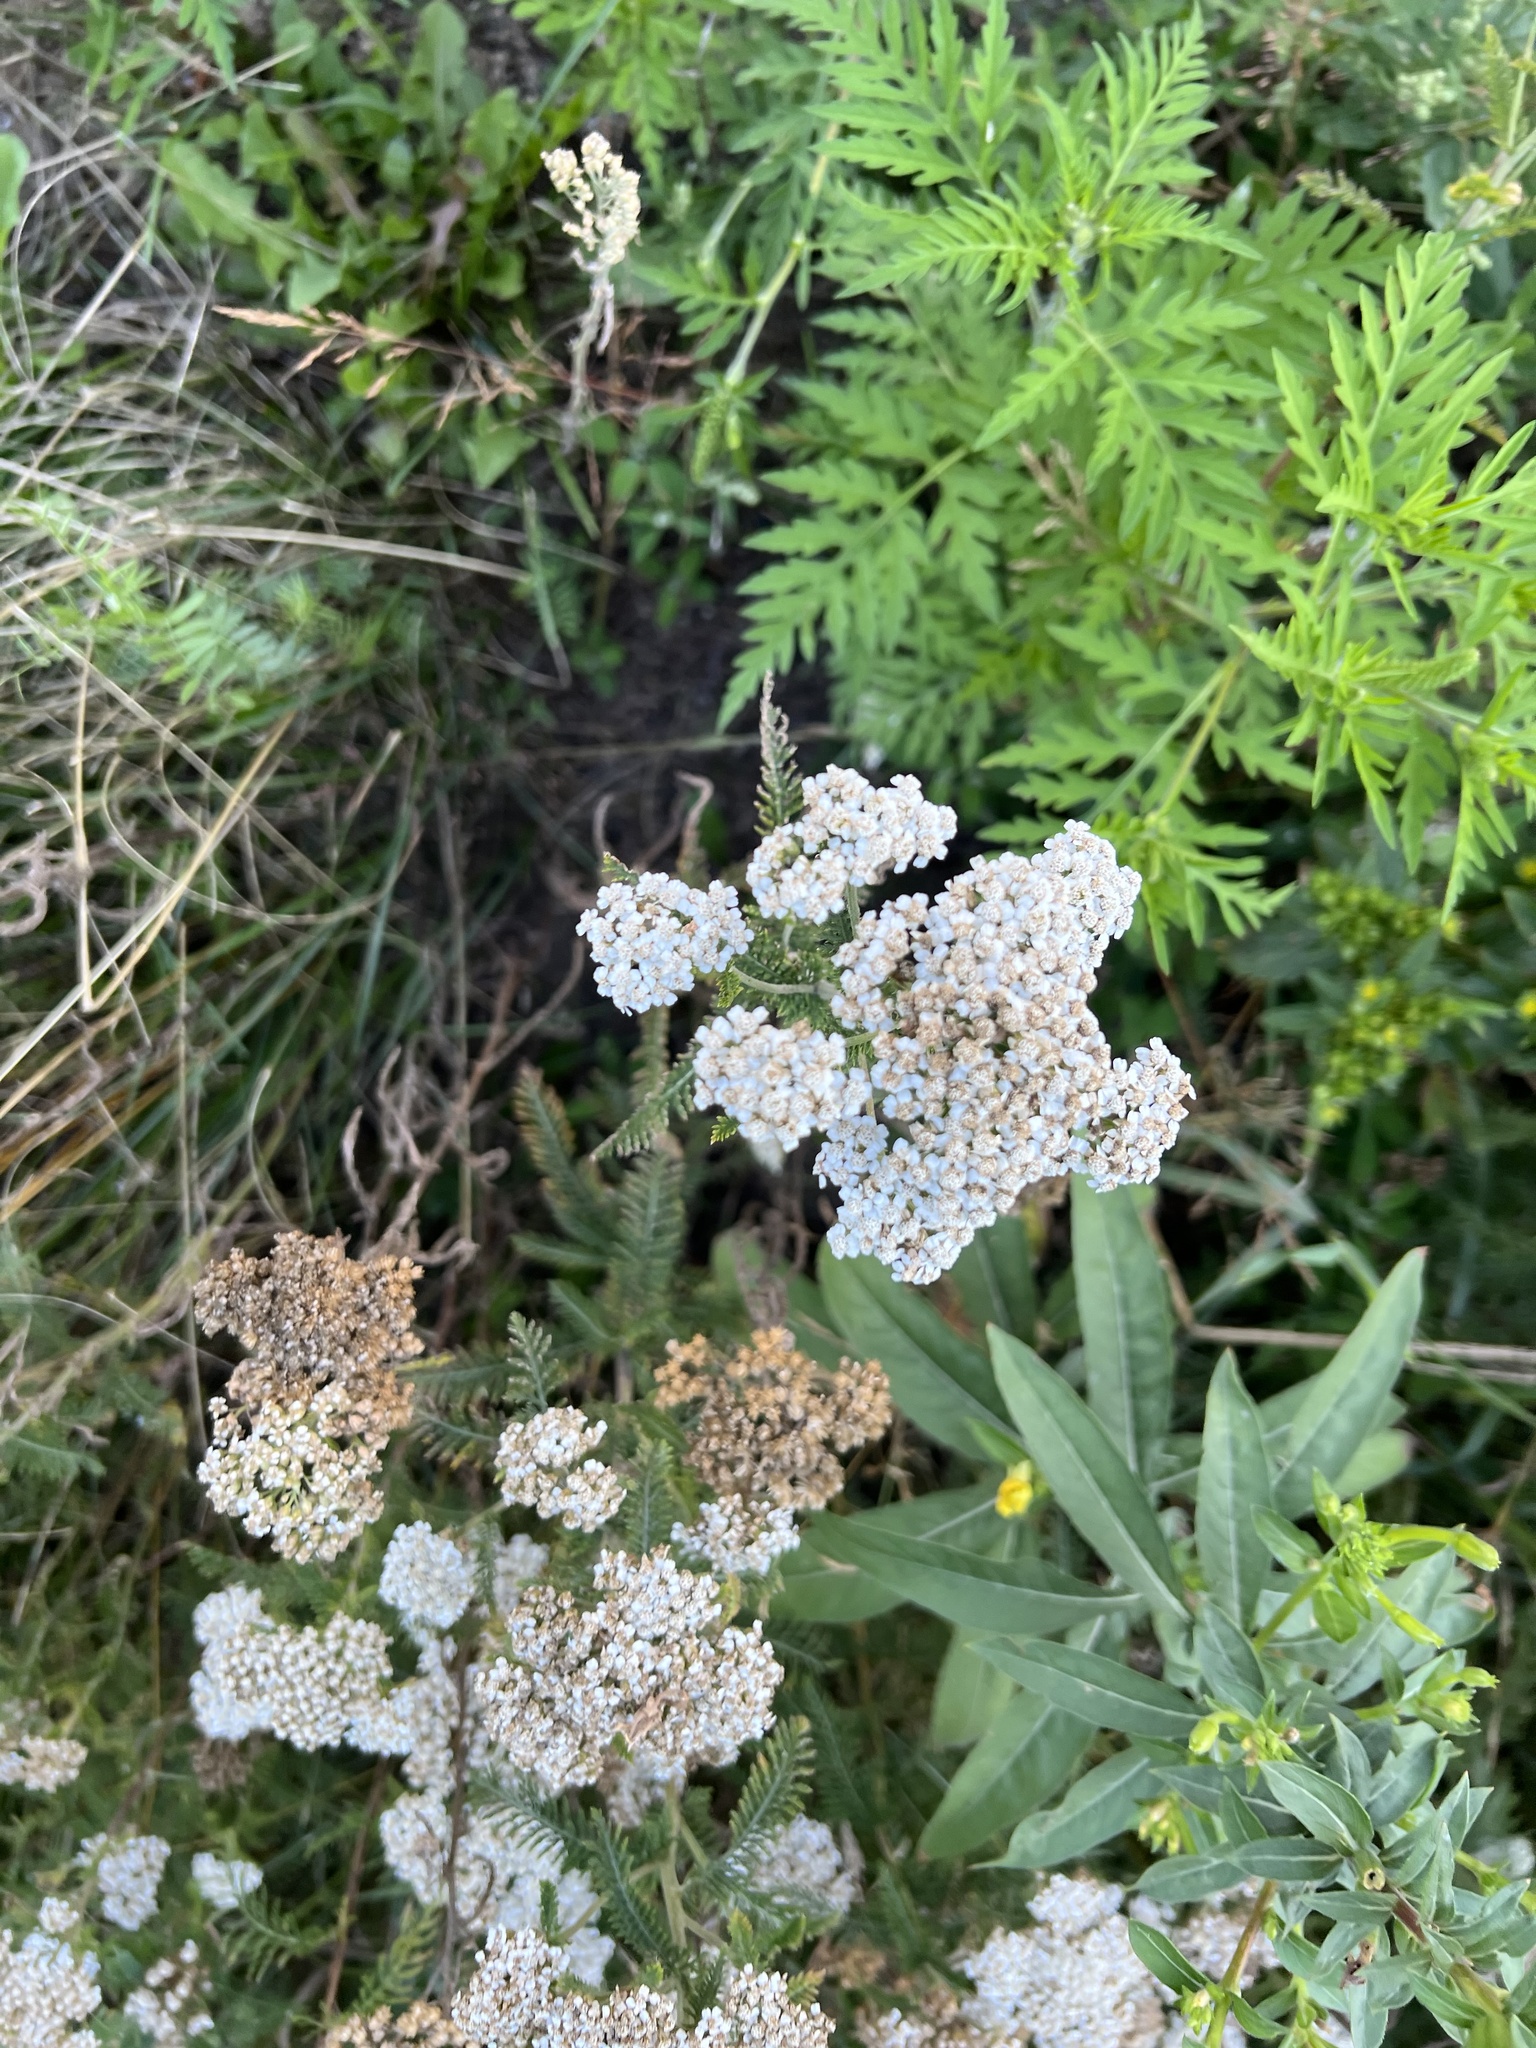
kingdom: Plantae
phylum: Tracheophyta
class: Magnoliopsida
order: Asterales
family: Asteraceae
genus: Achillea
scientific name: Achillea millefolium
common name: Yarrow
